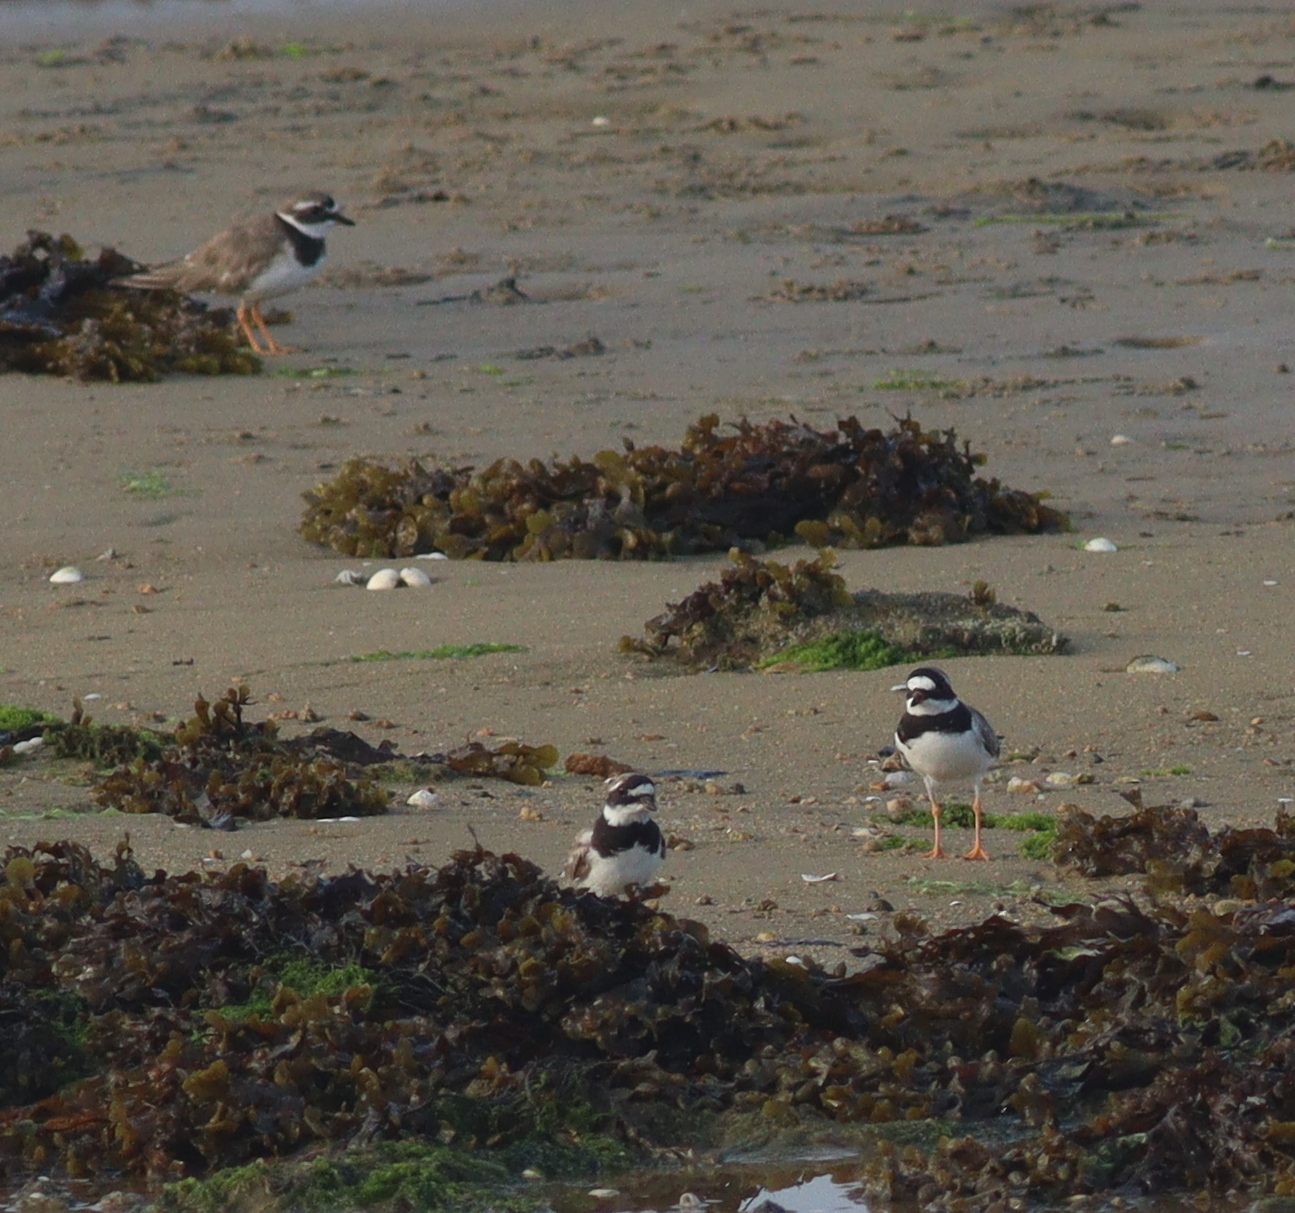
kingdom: Animalia
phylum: Chordata
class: Aves
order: Charadriiformes
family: Charadriidae
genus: Charadrius
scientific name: Charadrius hiaticula
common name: Common ringed plover
